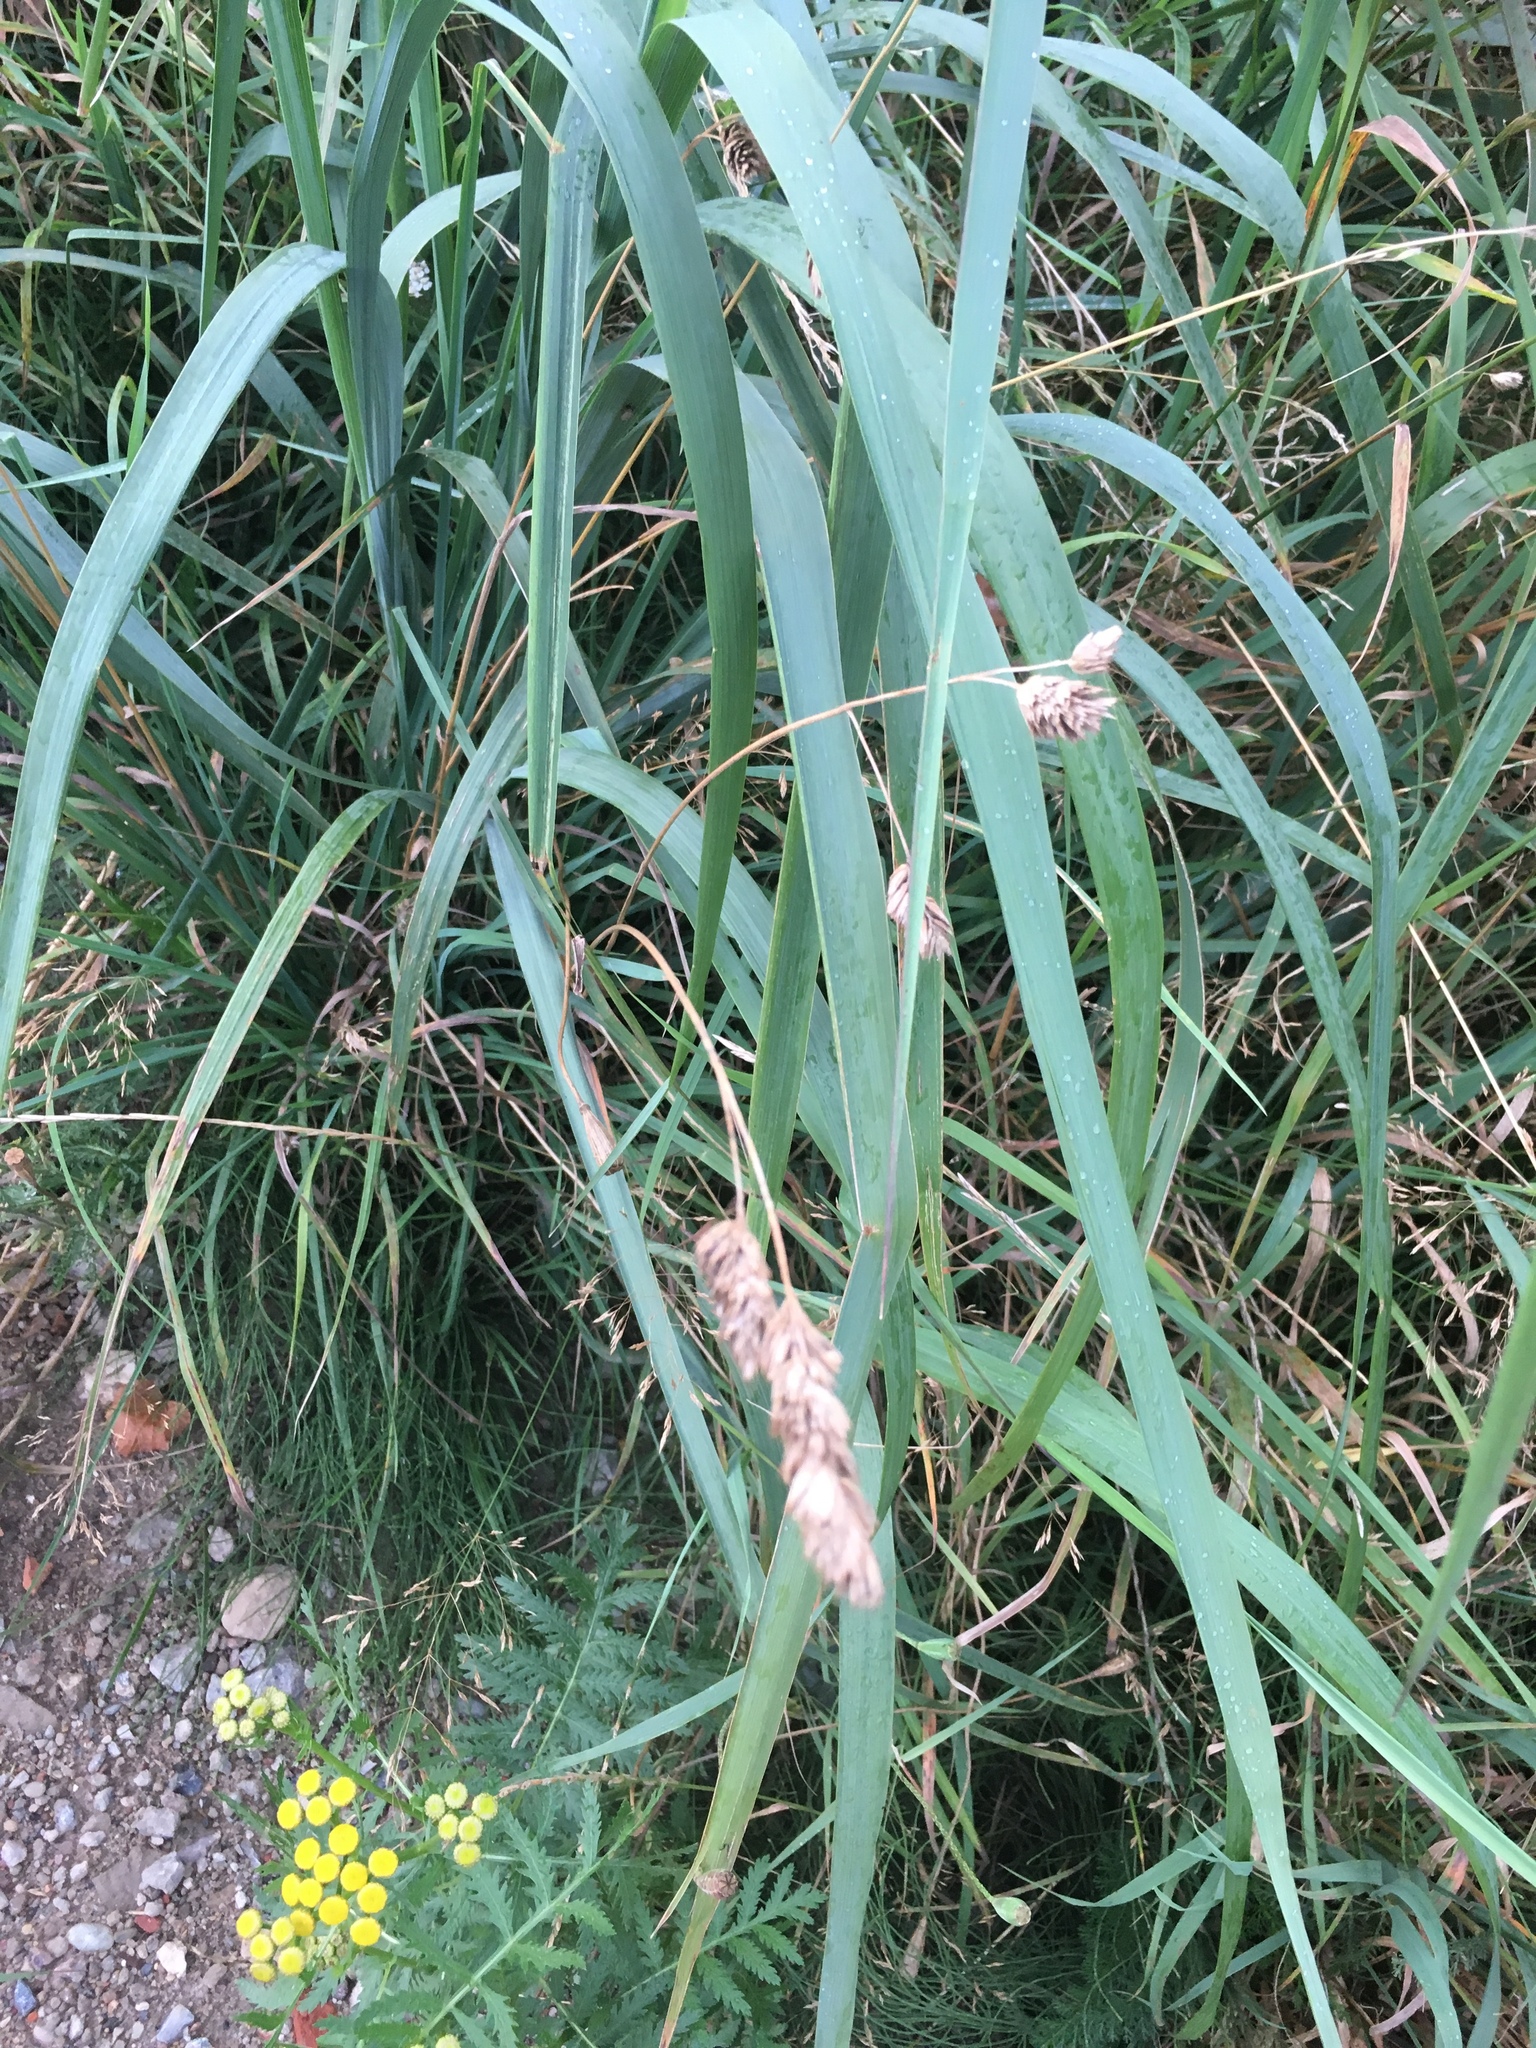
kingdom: Plantae
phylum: Tracheophyta
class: Liliopsida
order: Poales
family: Poaceae
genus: Dactylis
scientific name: Dactylis glomerata
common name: Orchardgrass
